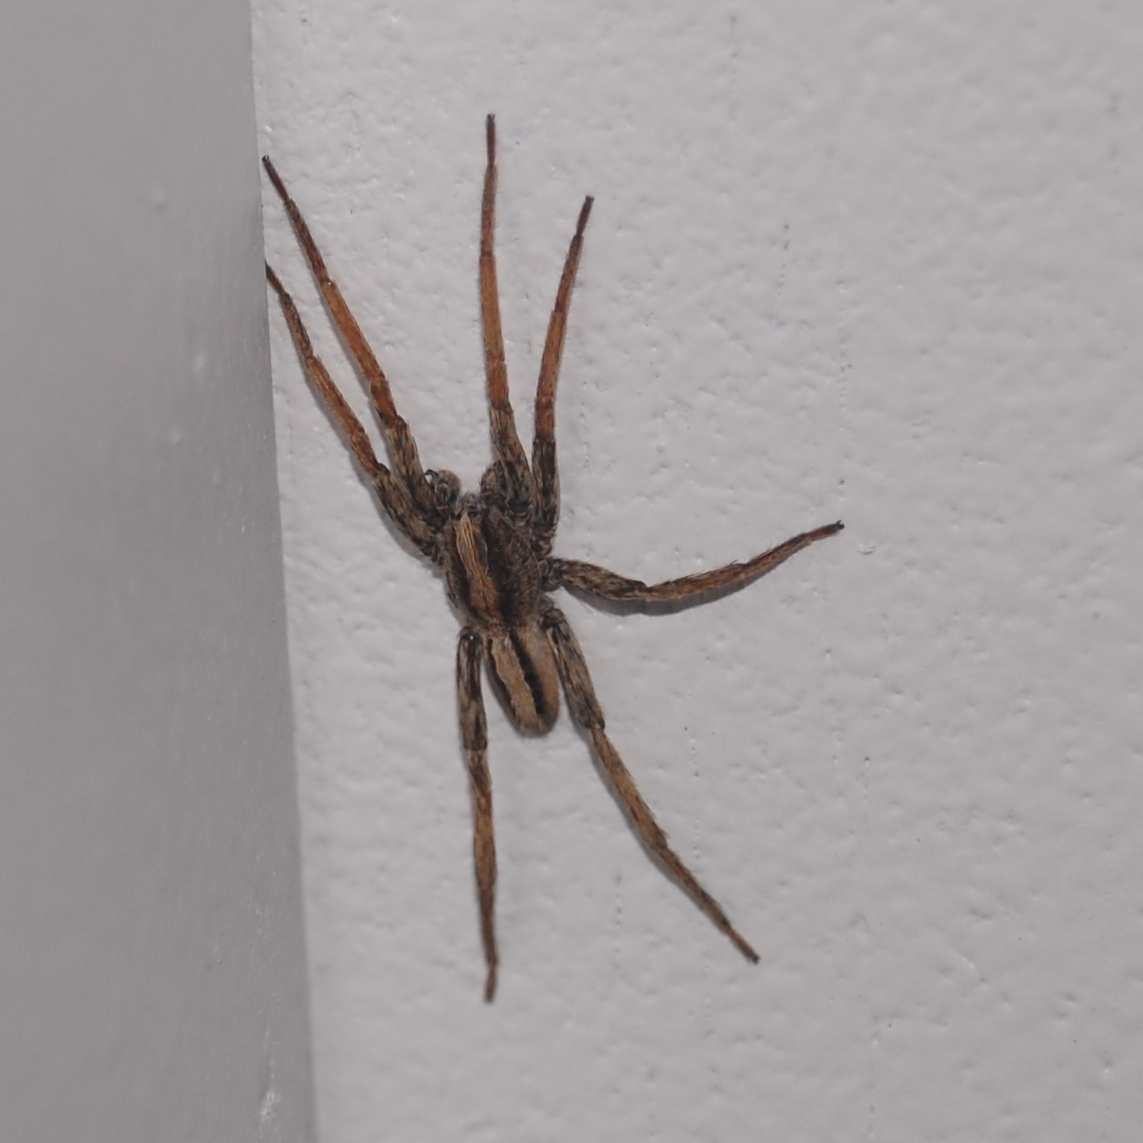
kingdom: Animalia
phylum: Arthropoda
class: Arachnida
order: Araneae
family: Ctenidae
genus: Parabatinga
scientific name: Parabatinga brevipes
